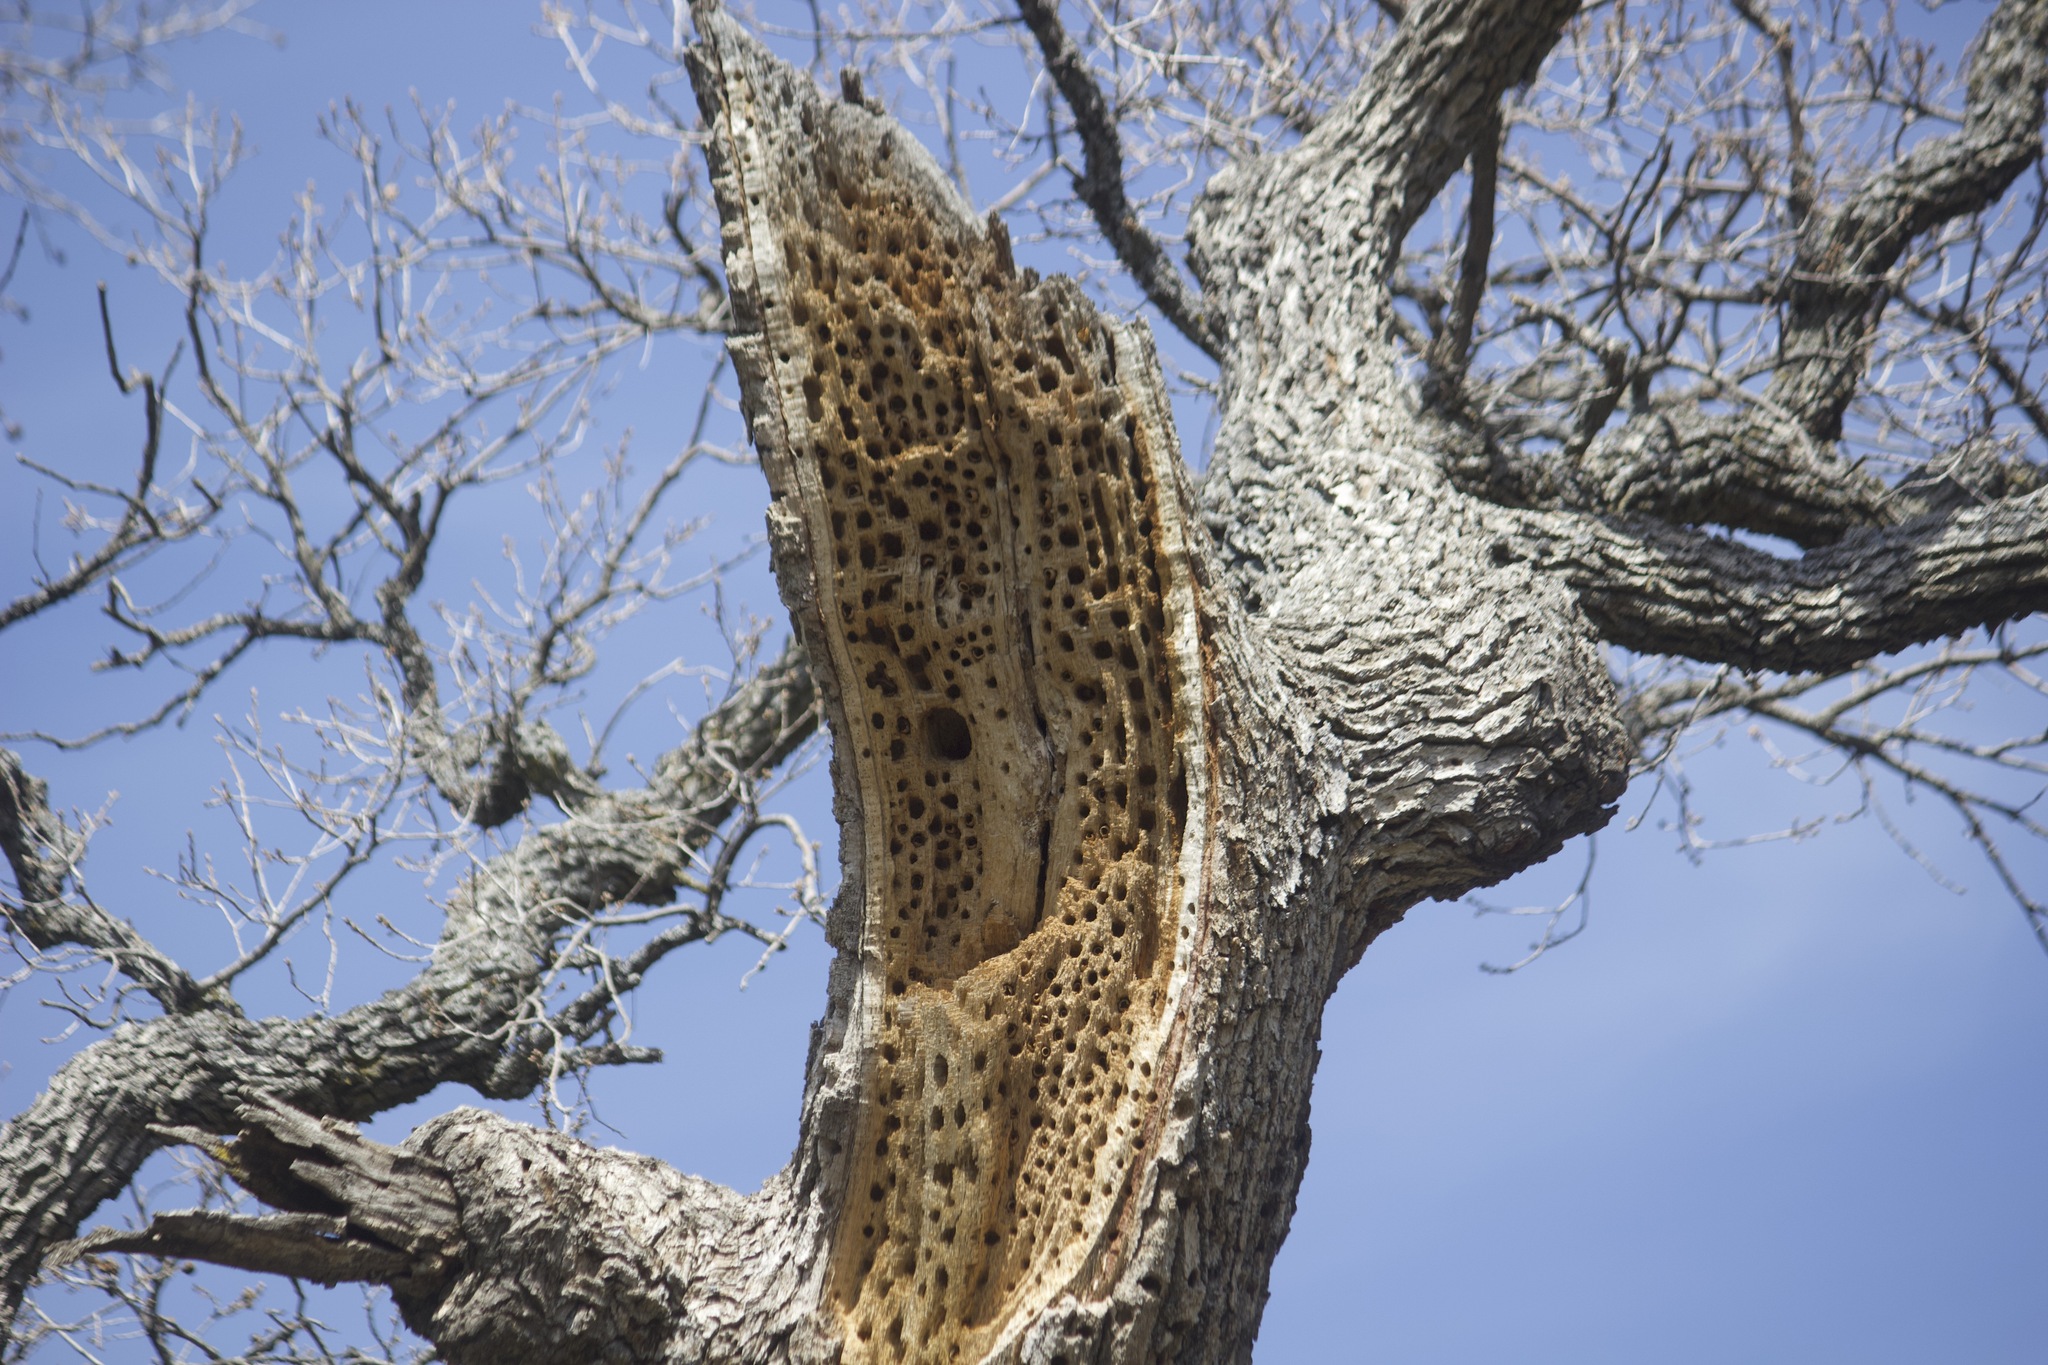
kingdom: Animalia
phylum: Chordata
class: Aves
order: Piciformes
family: Picidae
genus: Melanerpes
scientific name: Melanerpes formicivorus
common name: Acorn woodpecker
